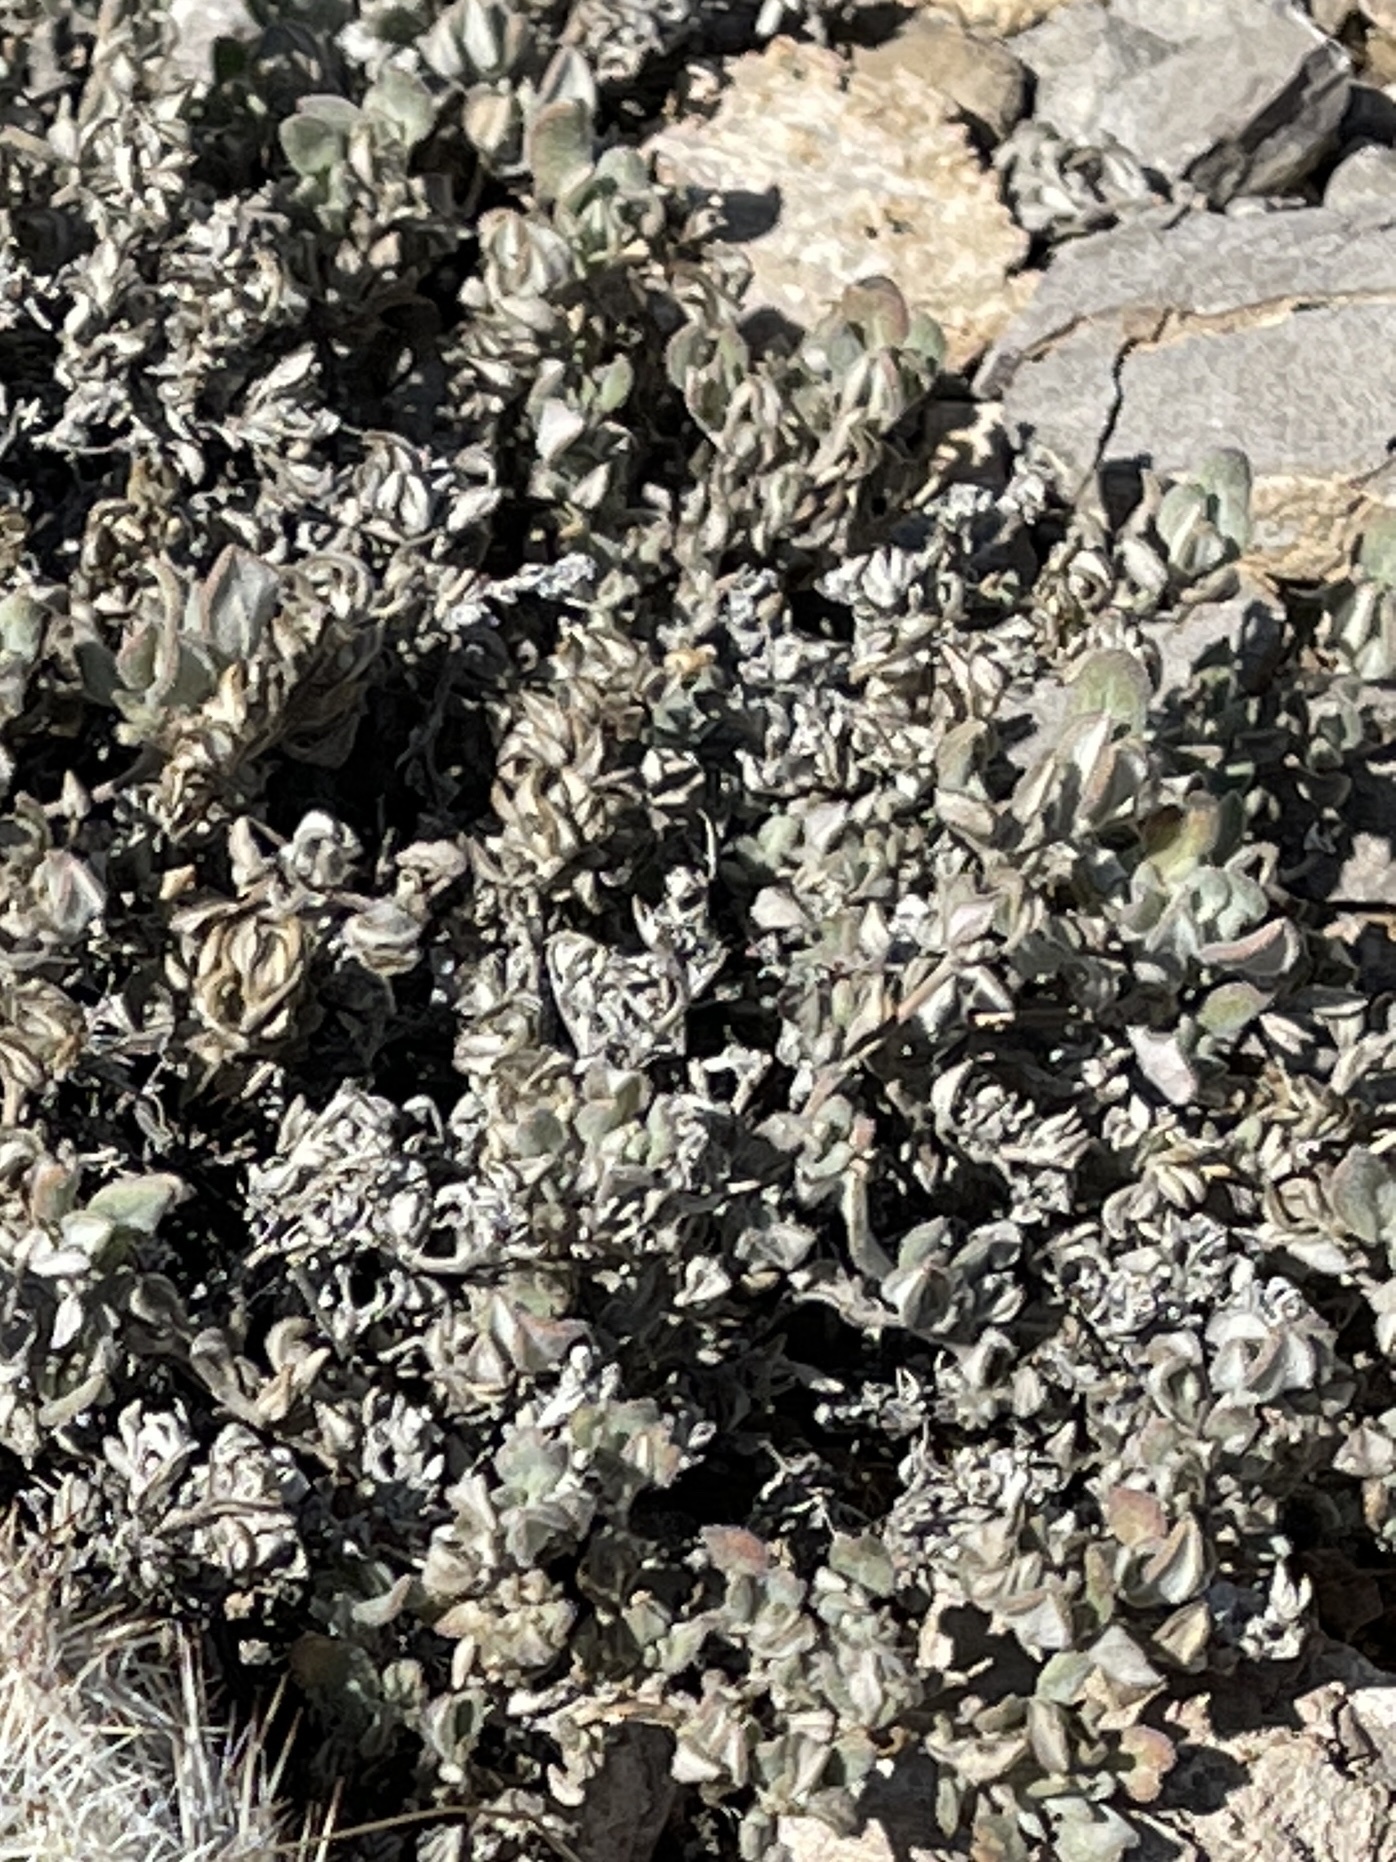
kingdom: Plantae
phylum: Tracheophyta
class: Magnoliopsida
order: Boraginales
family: Ehretiaceae
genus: Tiquilia
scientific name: Tiquilia canescens
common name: Hairy tiquilia
